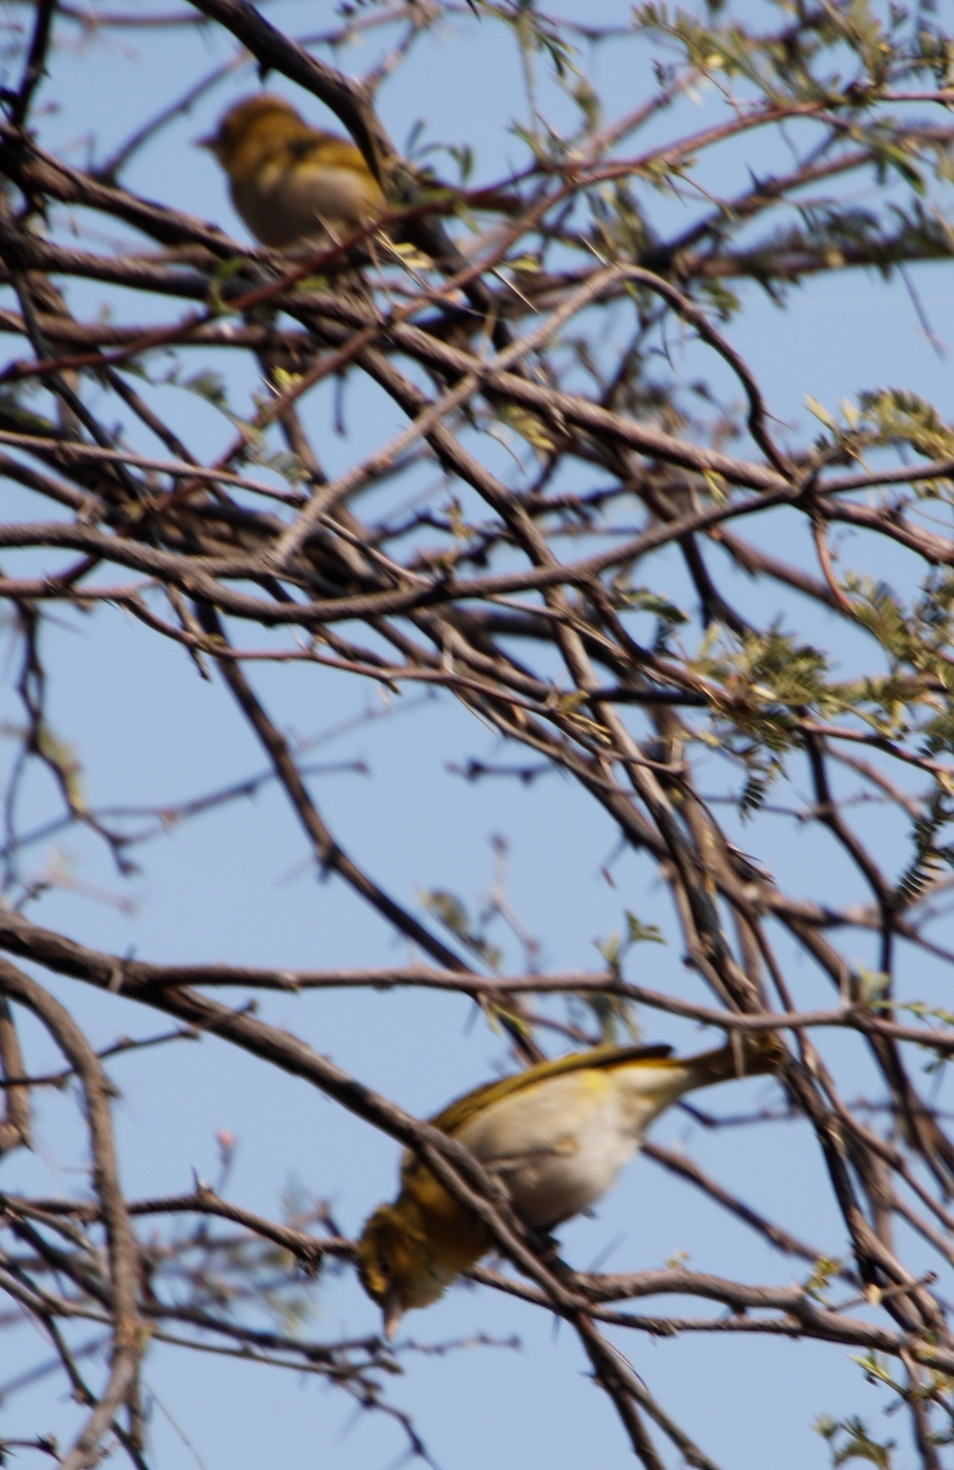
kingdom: Animalia
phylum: Chordata
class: Aves
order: Passeriformes
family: Ploceidae
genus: Ploceus
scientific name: Ploceus intermedius
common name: Lesser masked weaver
